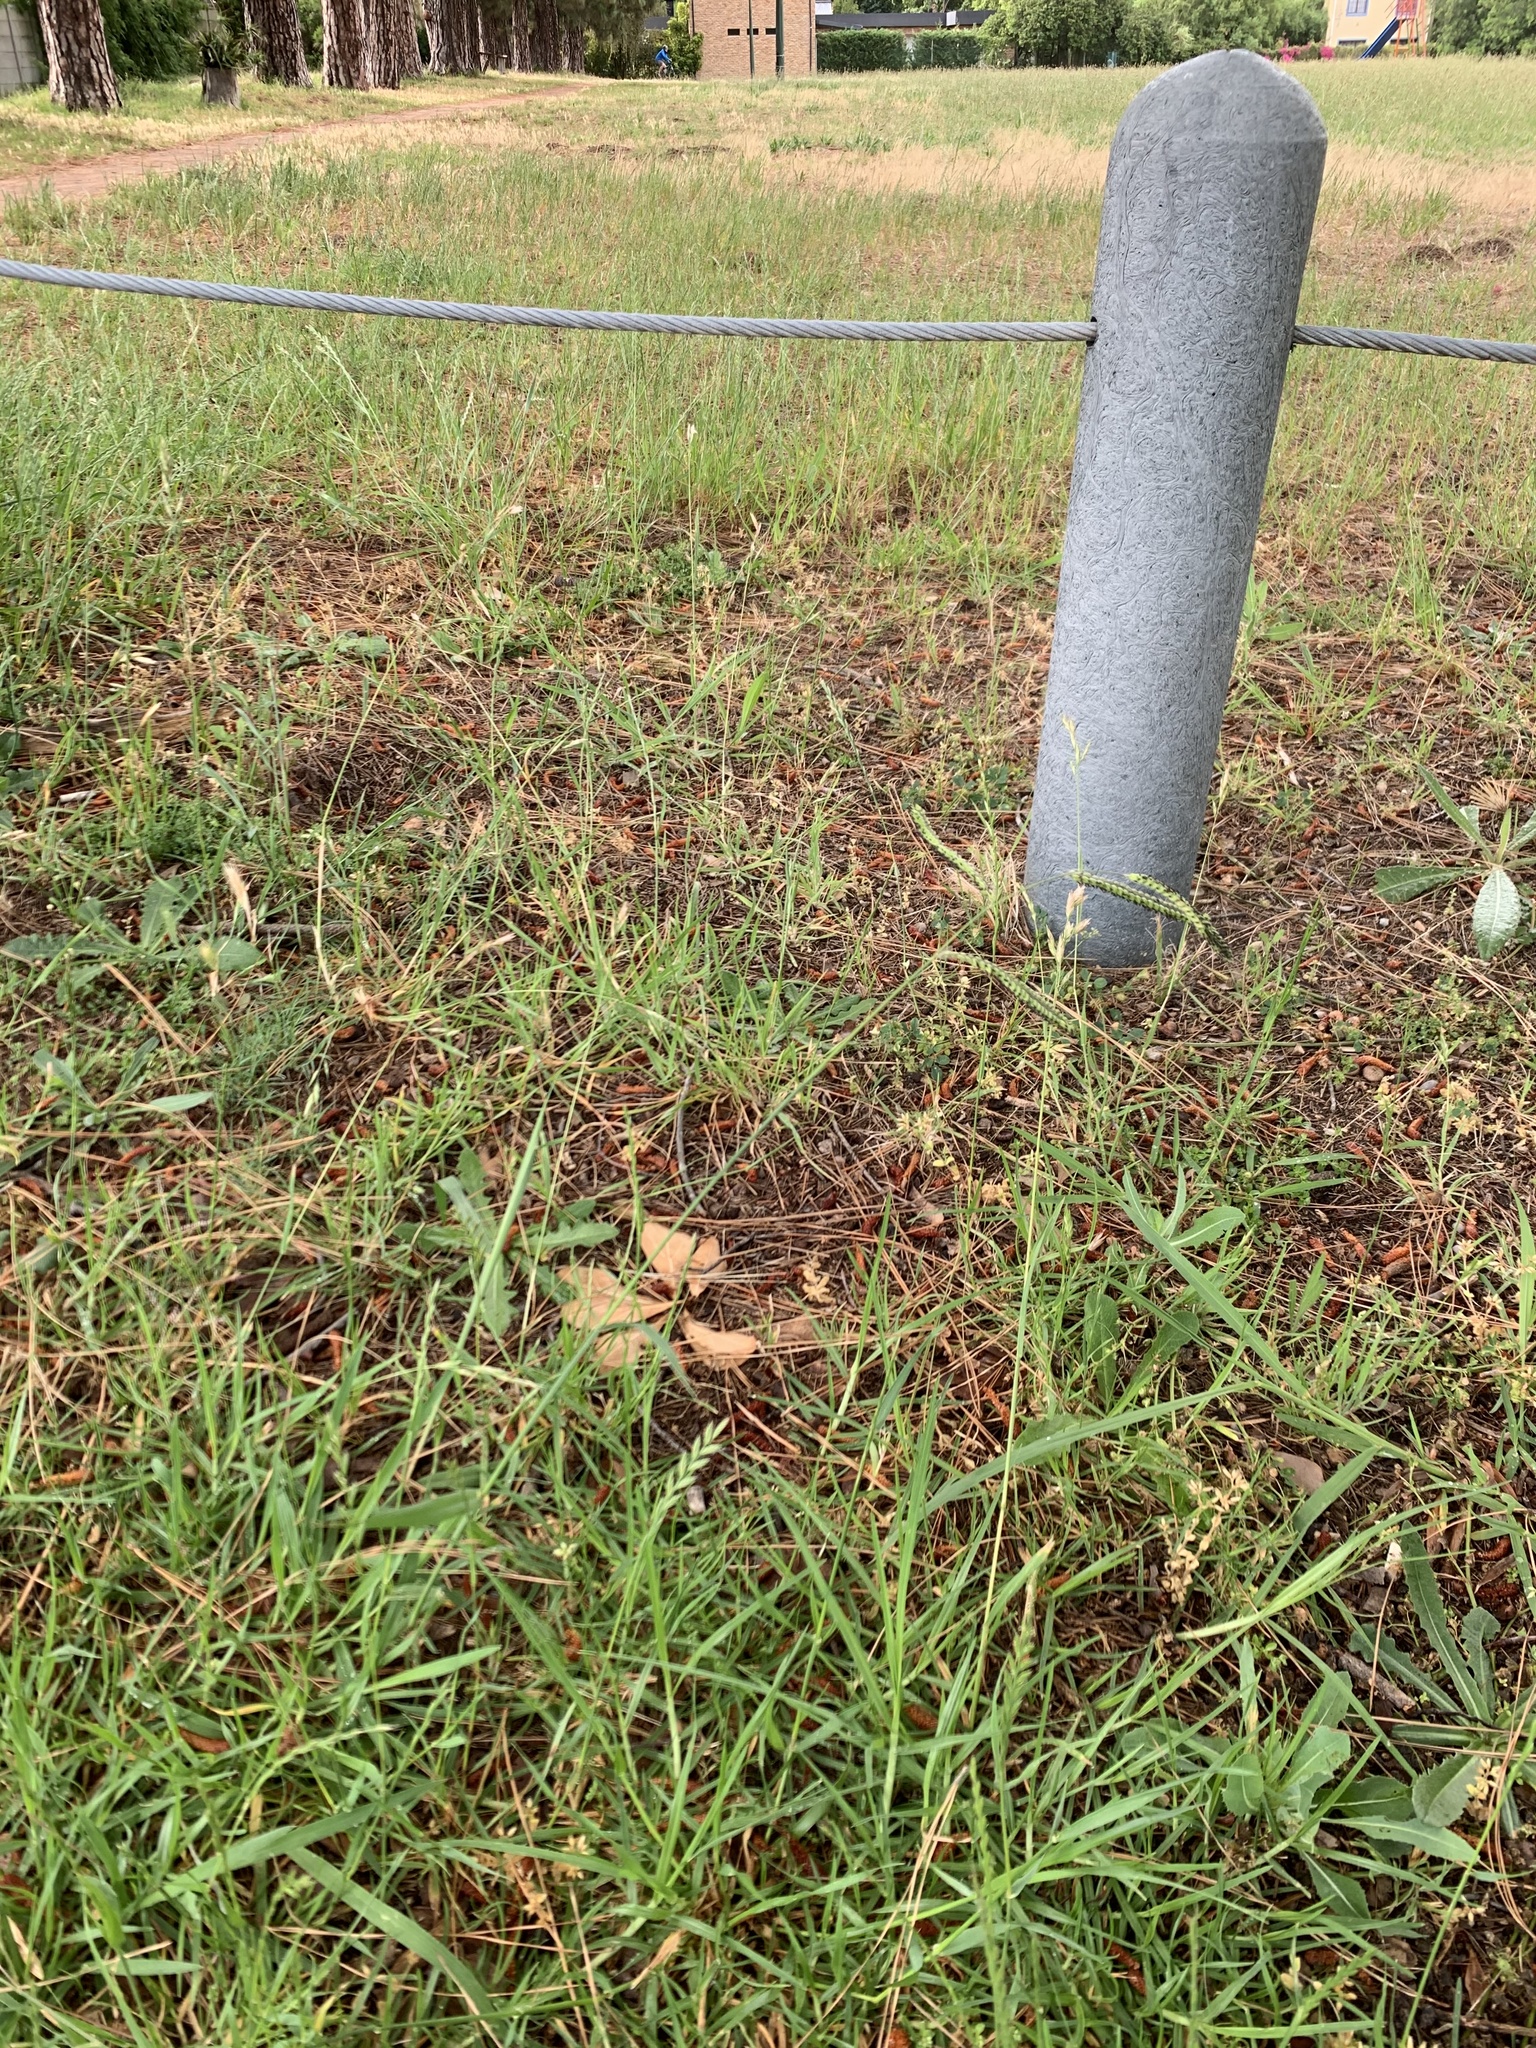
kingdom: Plantae
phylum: Tracheophyta
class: Liliopsida
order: Poales
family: Poaceae
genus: Paspalum
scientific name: Paspalum dilatatum
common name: Dallisgrass
